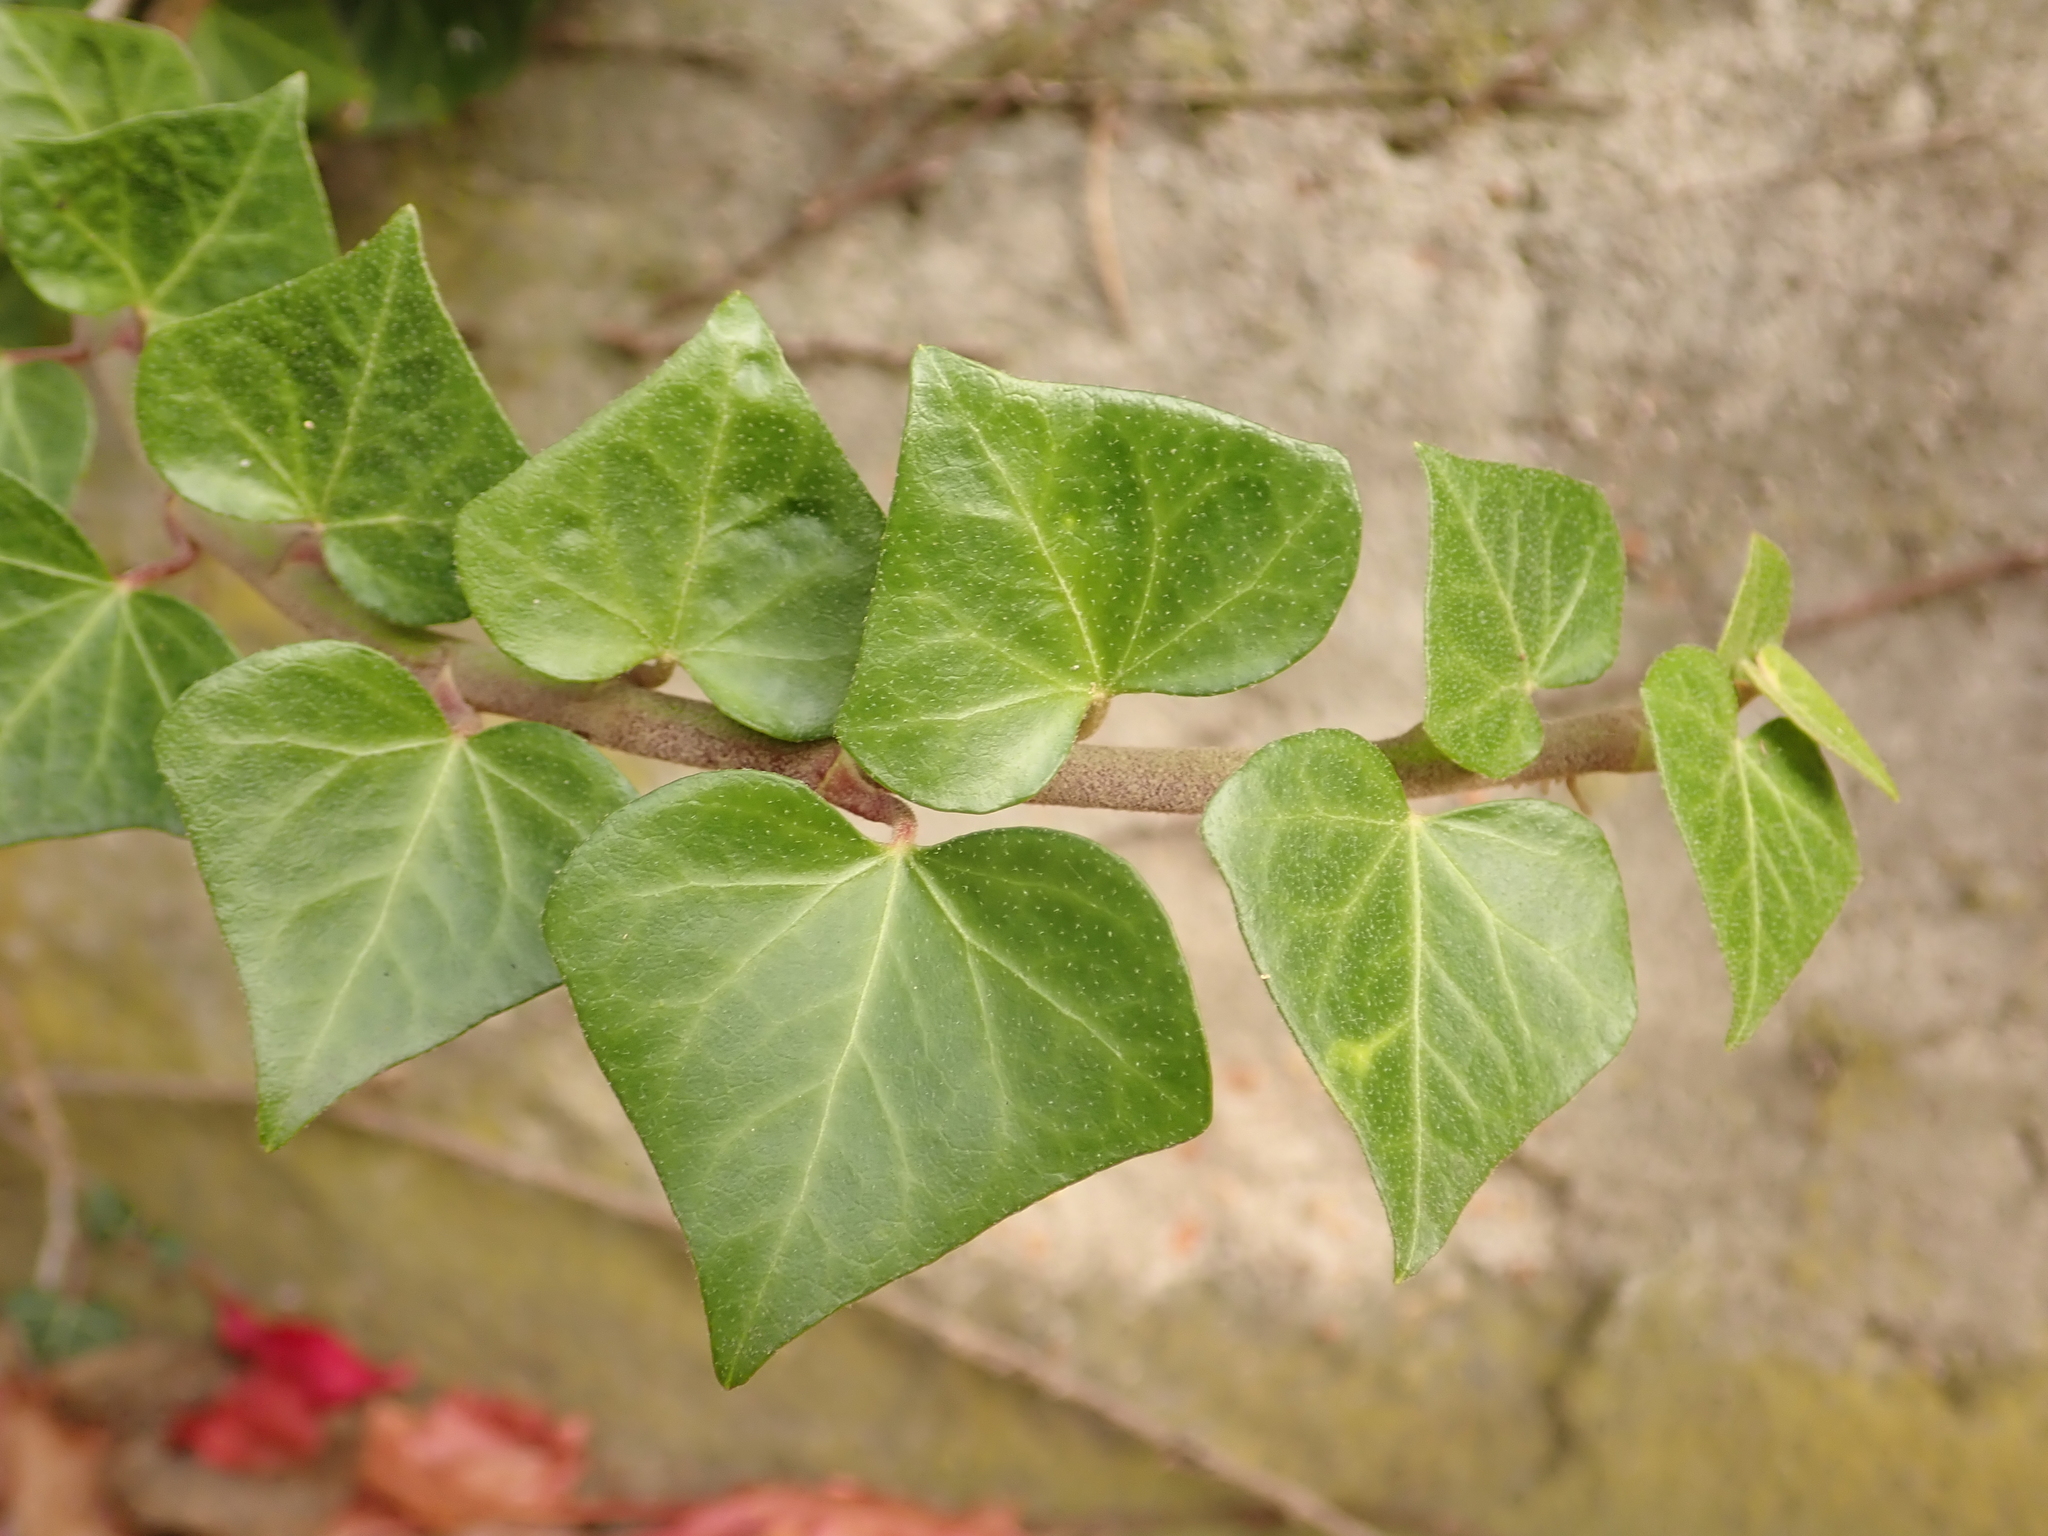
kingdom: Plantae
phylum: Tracheophyta
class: Magnoliopsida
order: Apiales
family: Araliaceae
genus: Hedera
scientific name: Hedera helix
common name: Ivy
